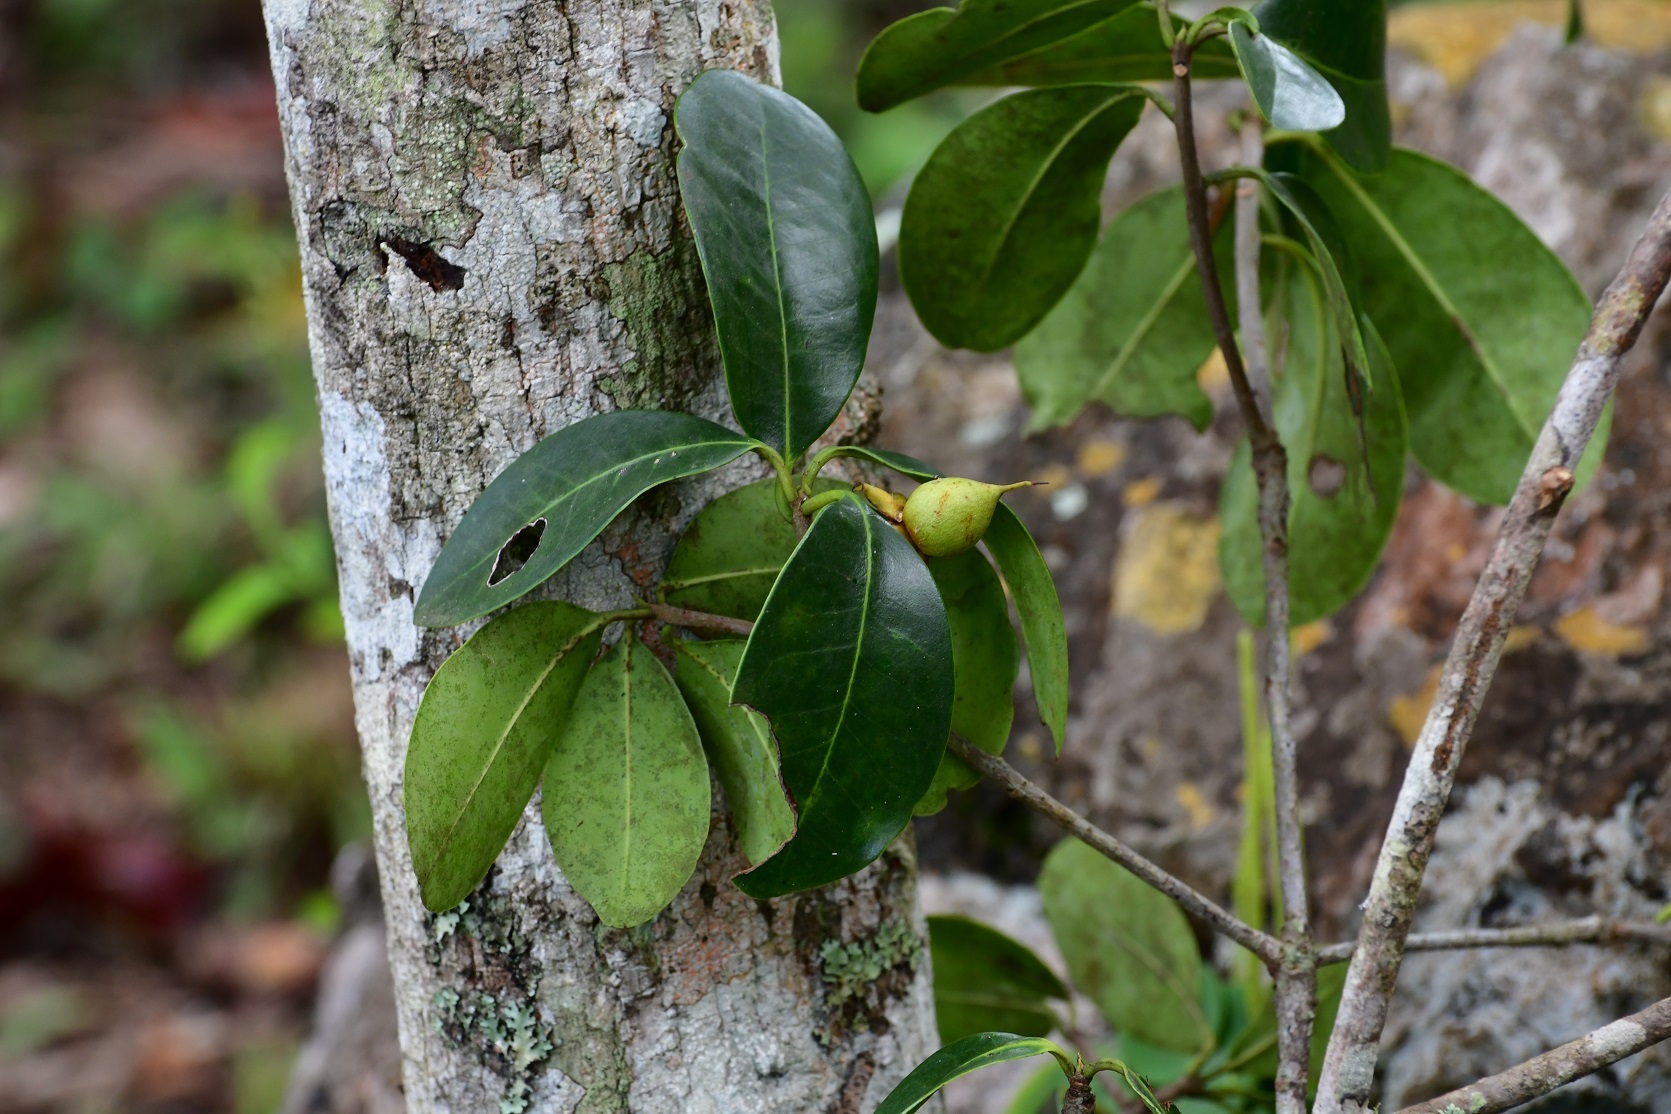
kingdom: Plantae
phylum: Tracheophyta
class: Magnoliopsida
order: Ericales
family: Pentaphylacaceae
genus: Ternstroemia
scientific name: Ternstroemia tepezapote
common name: Copey vera
